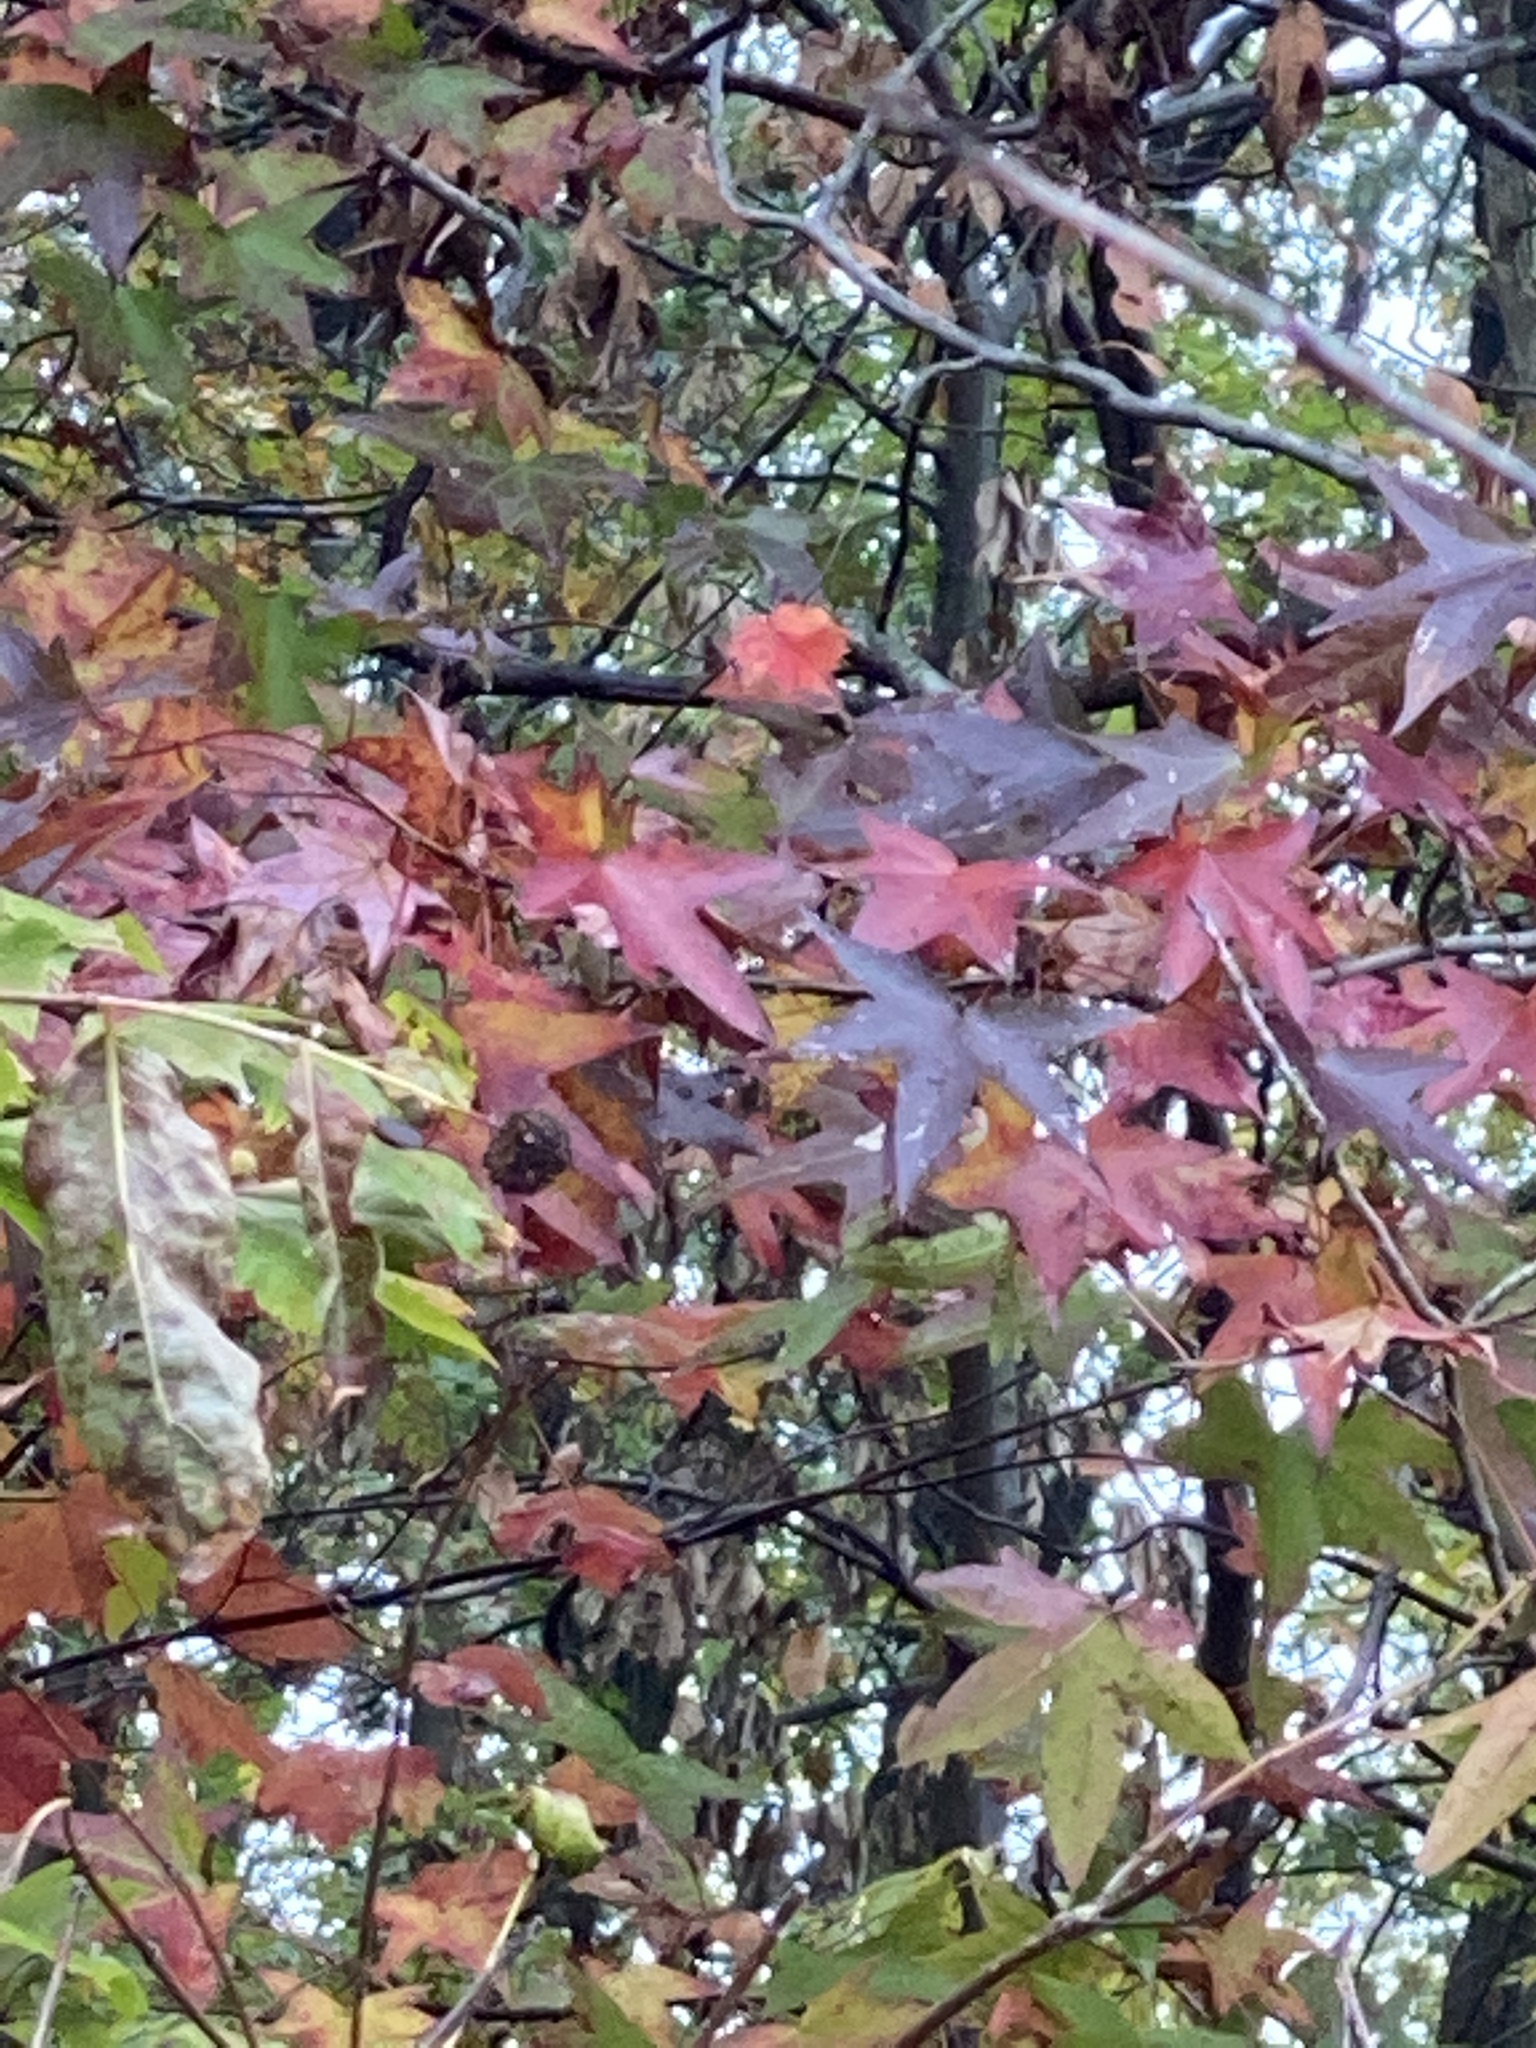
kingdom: Plantae
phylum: Tracheophyta
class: Magnoliopsida
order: Saxifragales
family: Altingiaceae
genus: Liquidambar
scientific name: Liquidambar styraciflua
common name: Sweet gum
